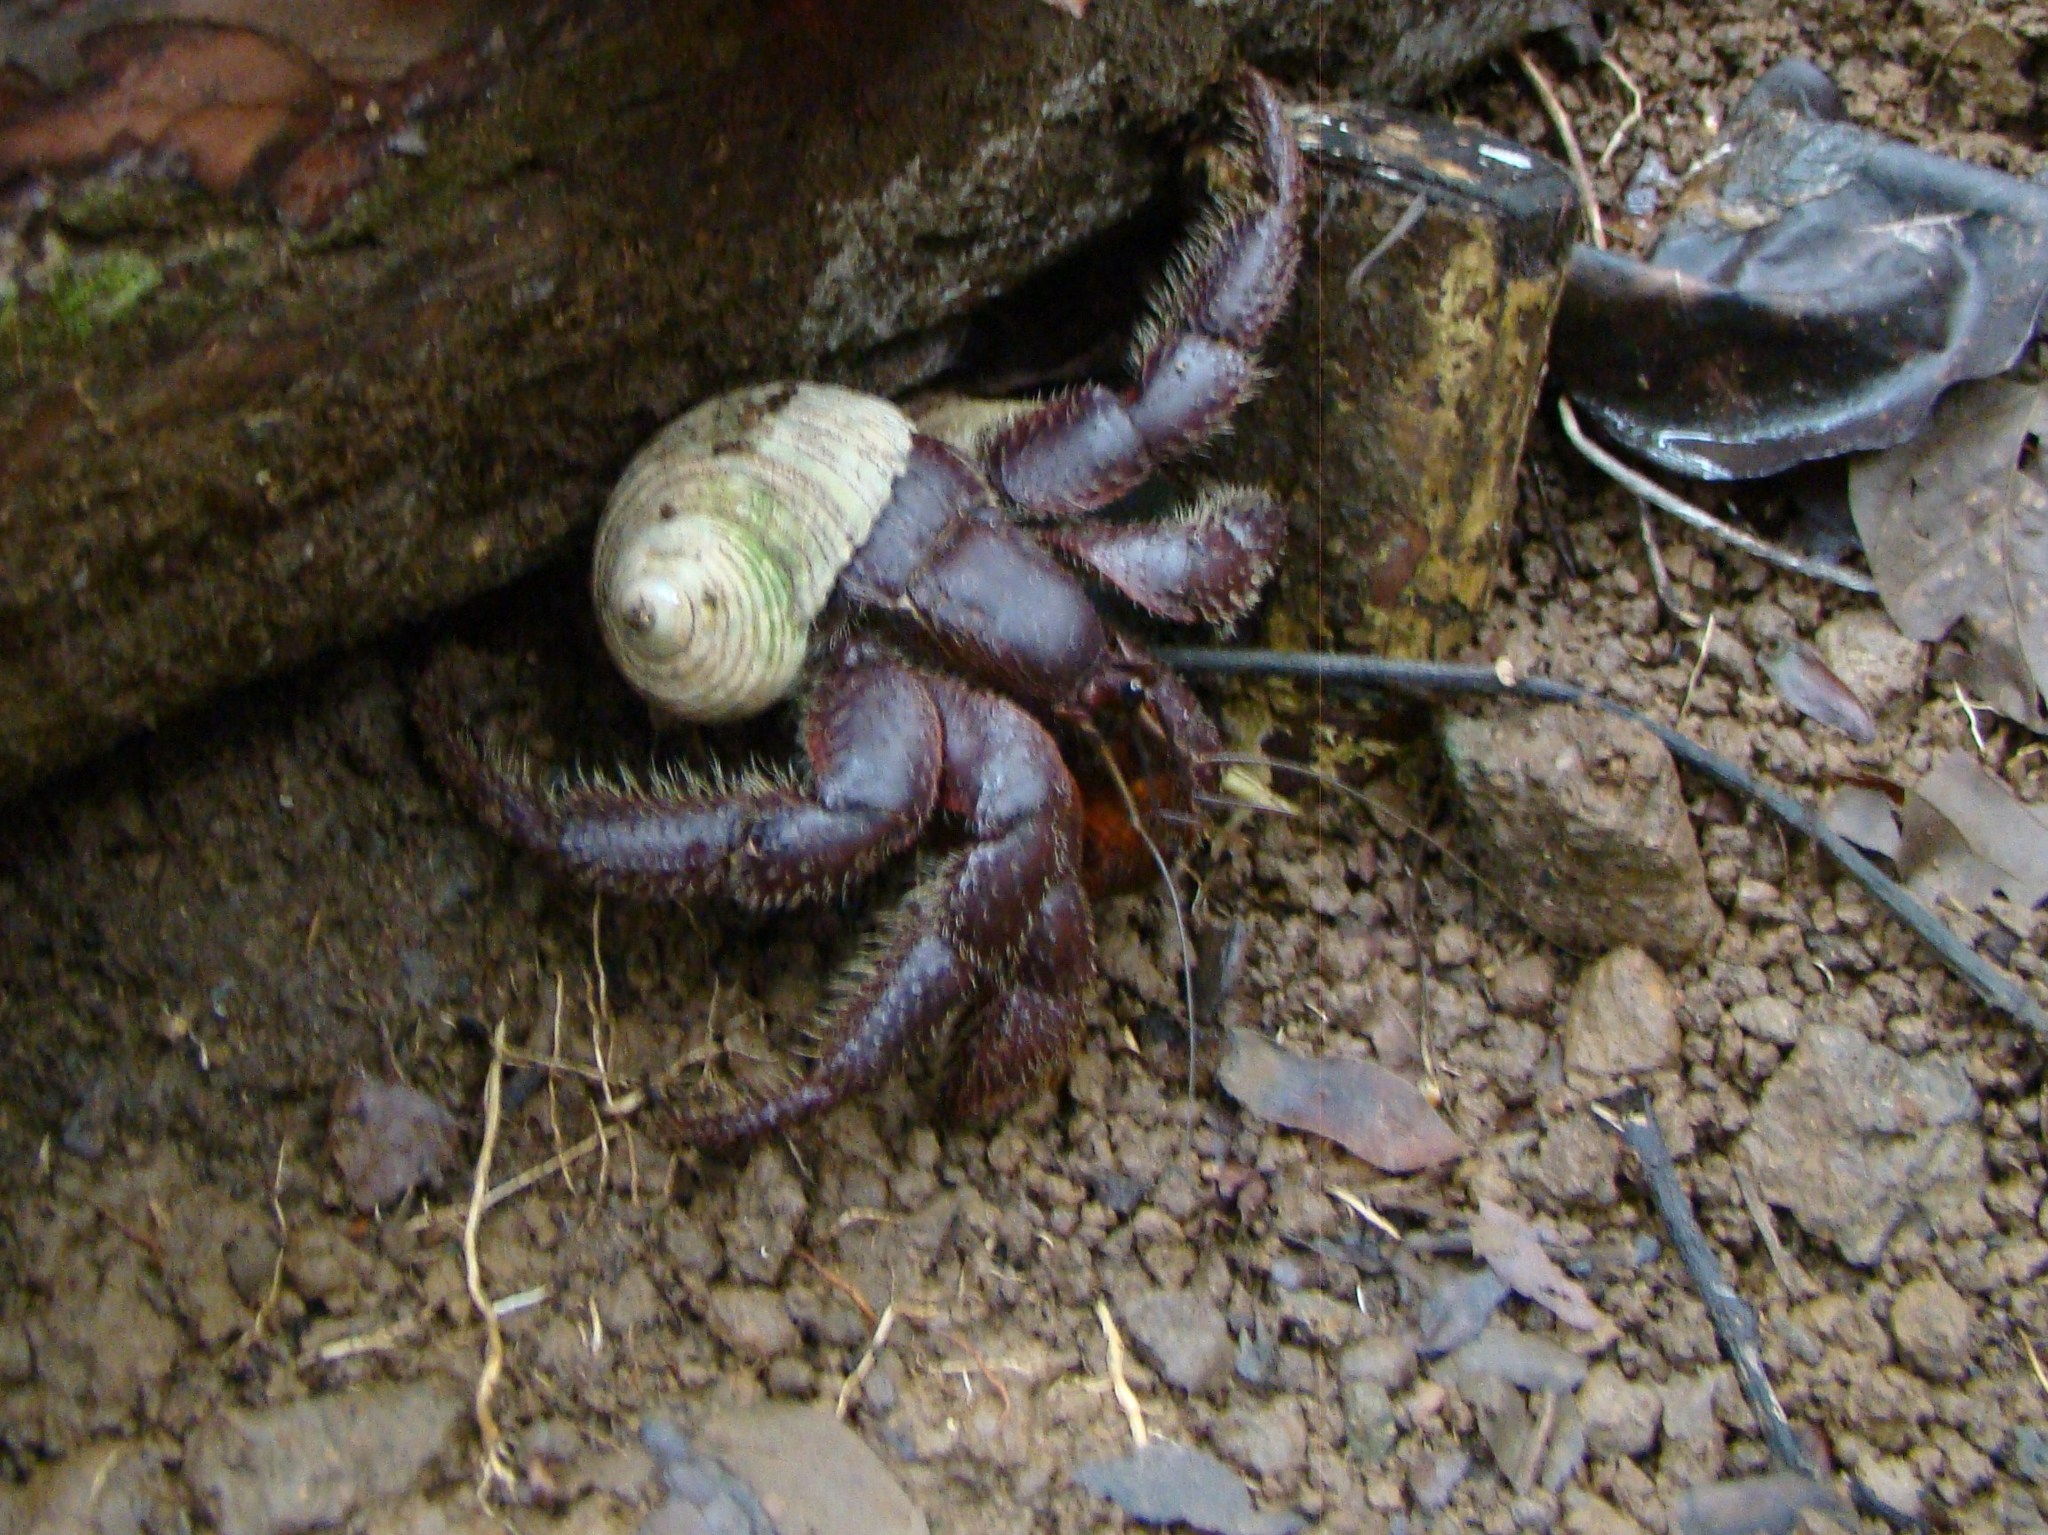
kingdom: Animalia
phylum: Arthropoda
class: Malacostraca
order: Decapoda
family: Coenobitidae
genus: Coenobita
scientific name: Coenobita spinosus
